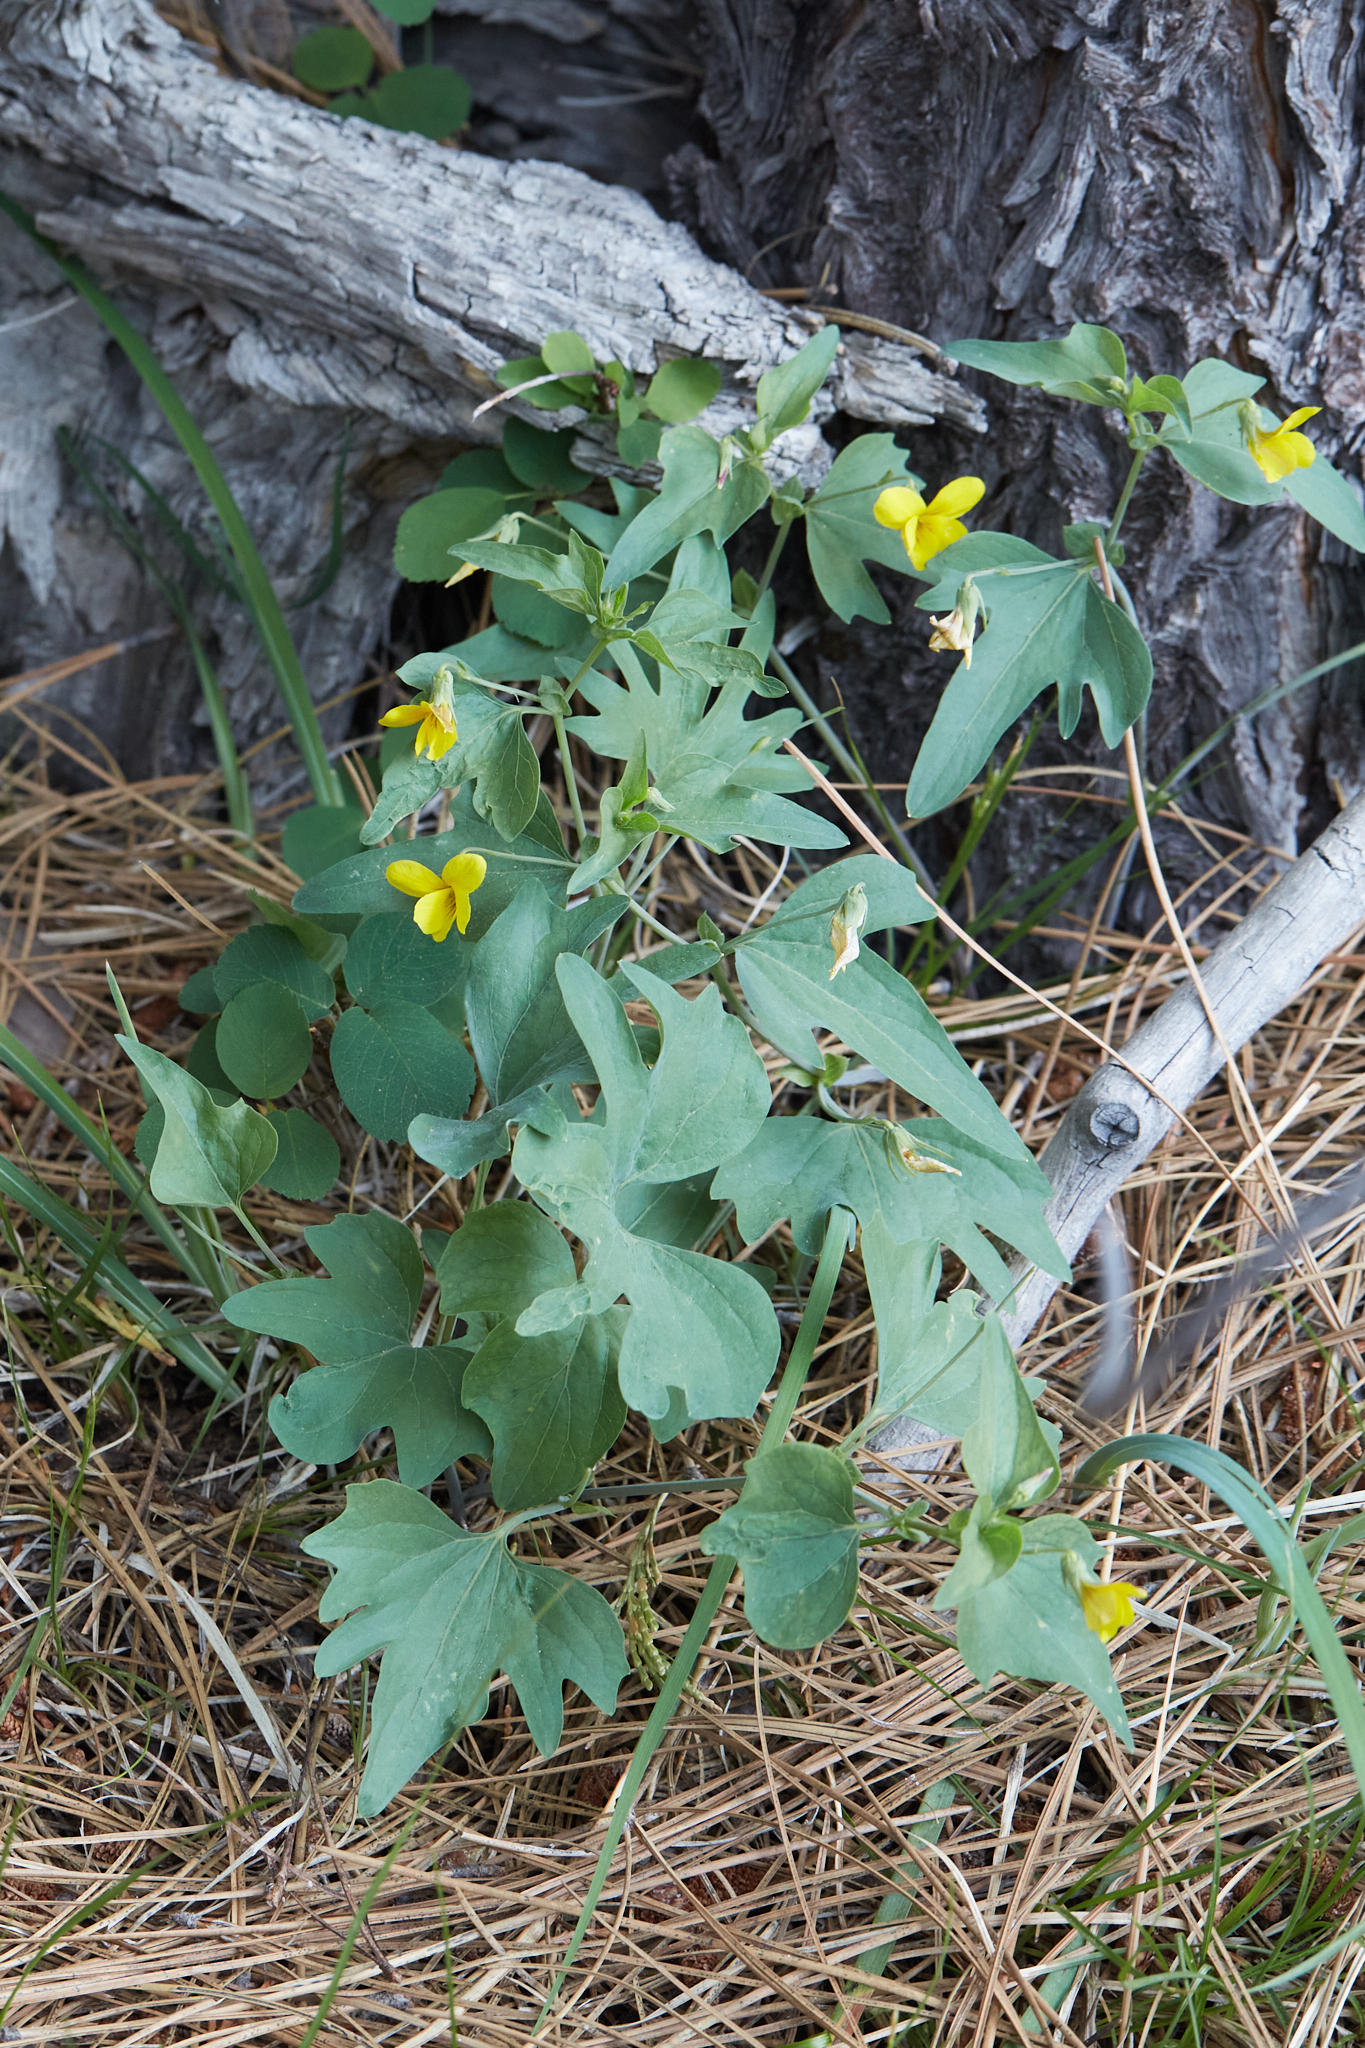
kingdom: Plantae
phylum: Tracheophyta
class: Magnoliopsida
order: Malpighiales
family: Violaceae
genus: Viola
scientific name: Viola lobata
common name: Pine violet
